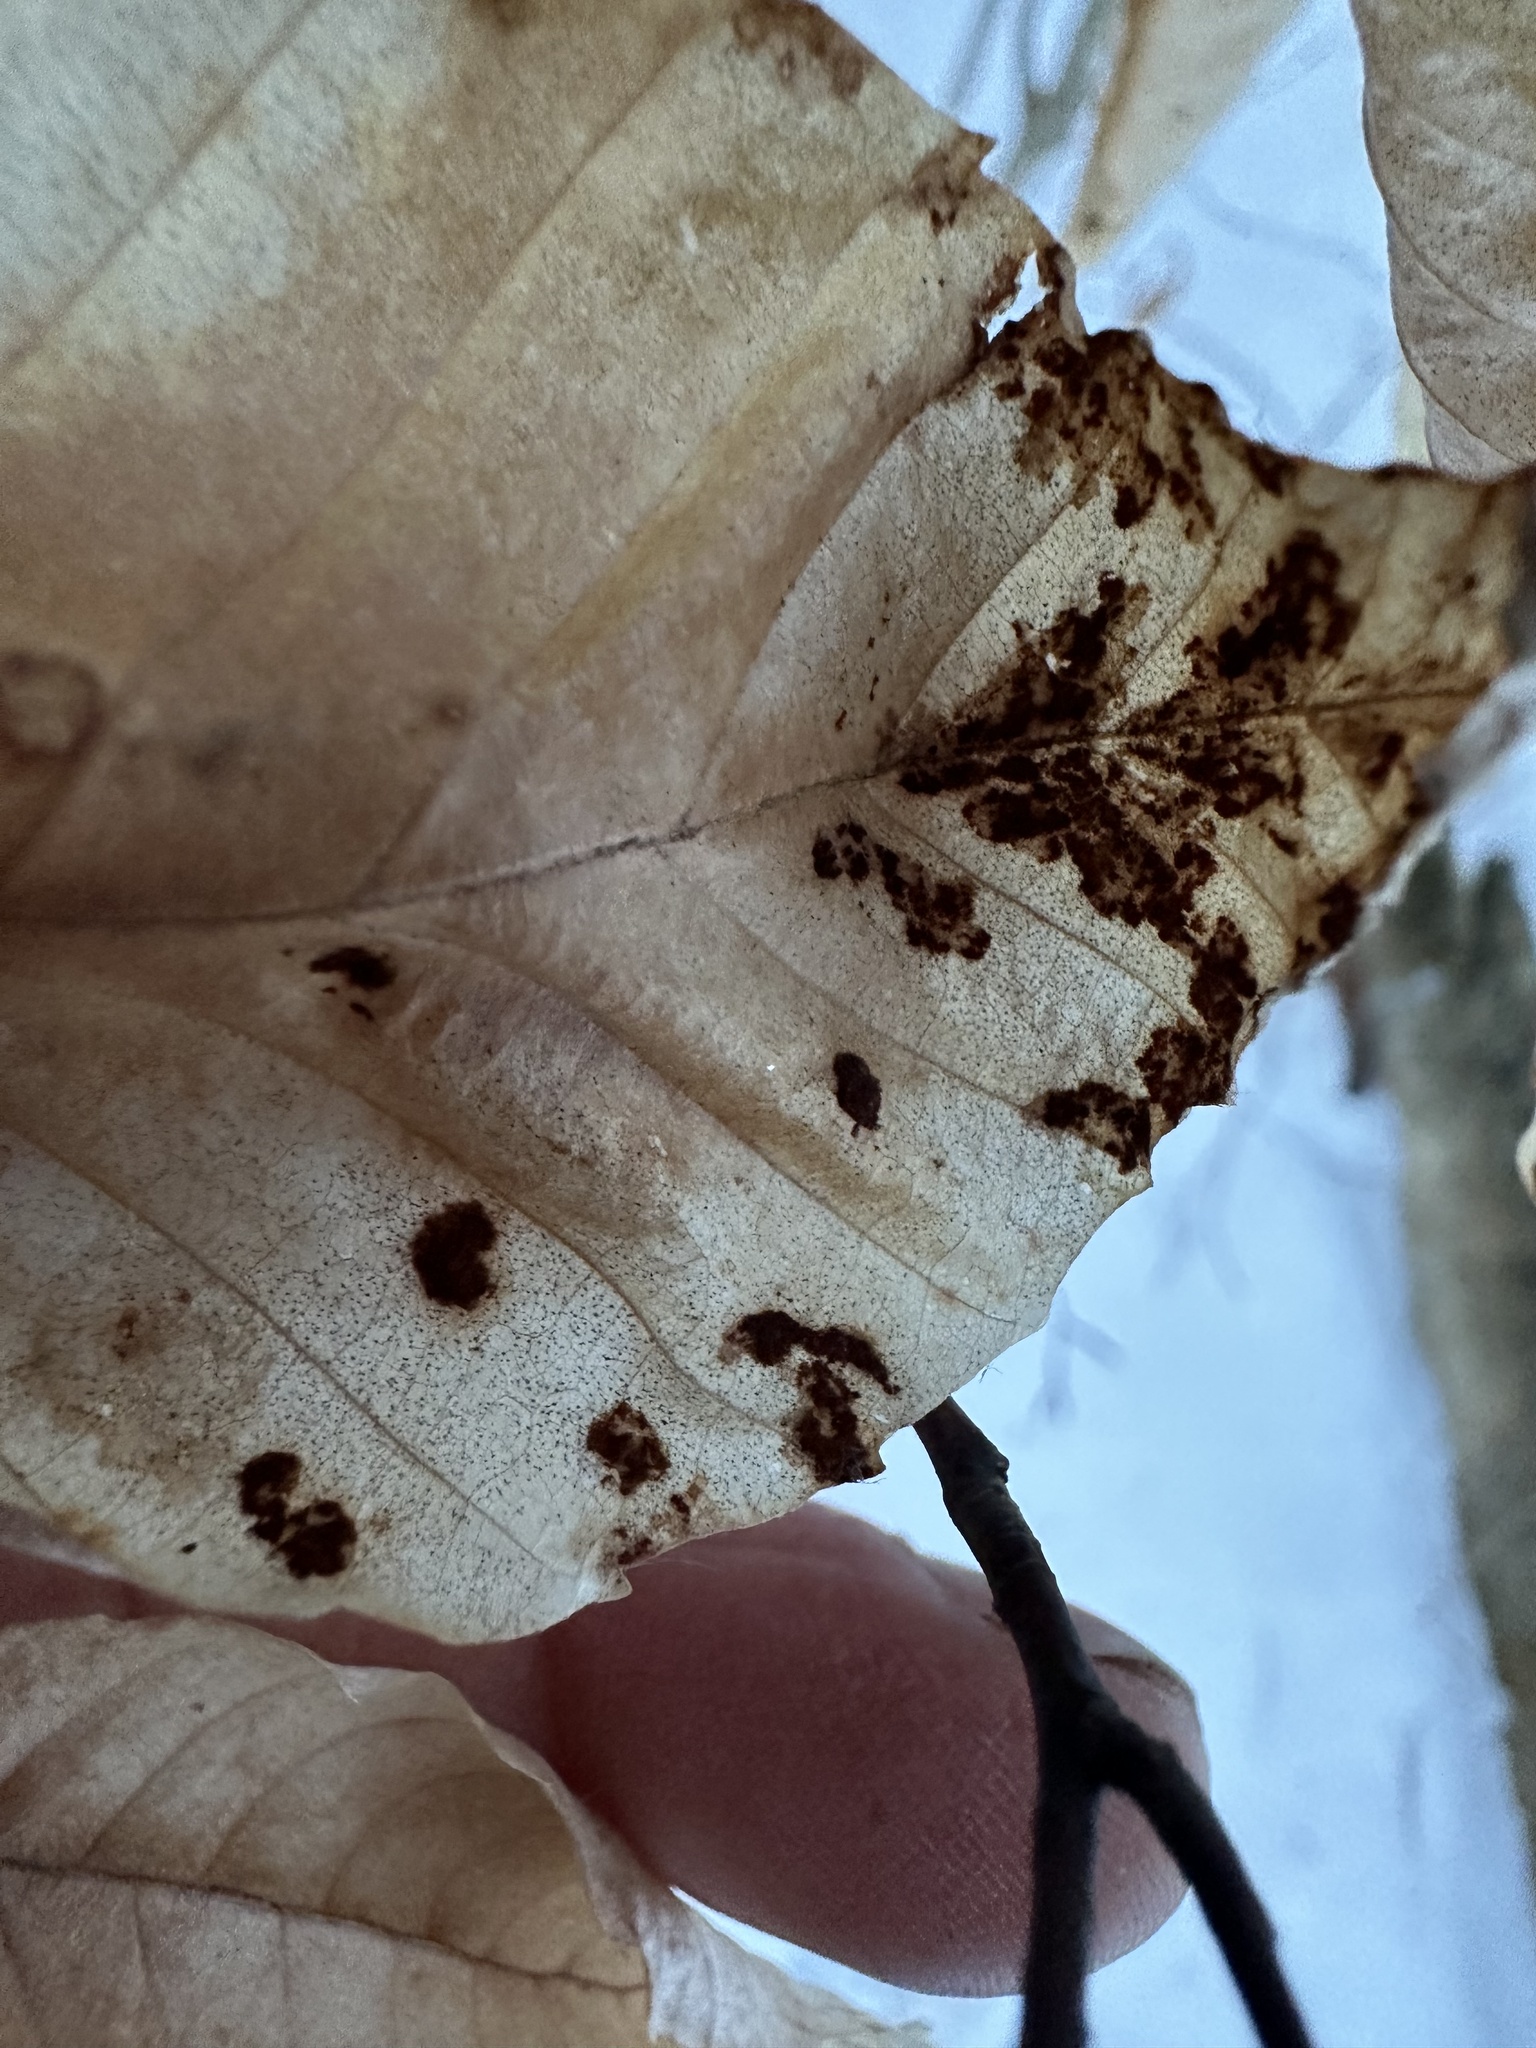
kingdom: Animalia
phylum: Arthropoda
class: Arachnida
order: Trombidiformes
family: Eriophyidae
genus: Acalitus
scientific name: Acalitus
